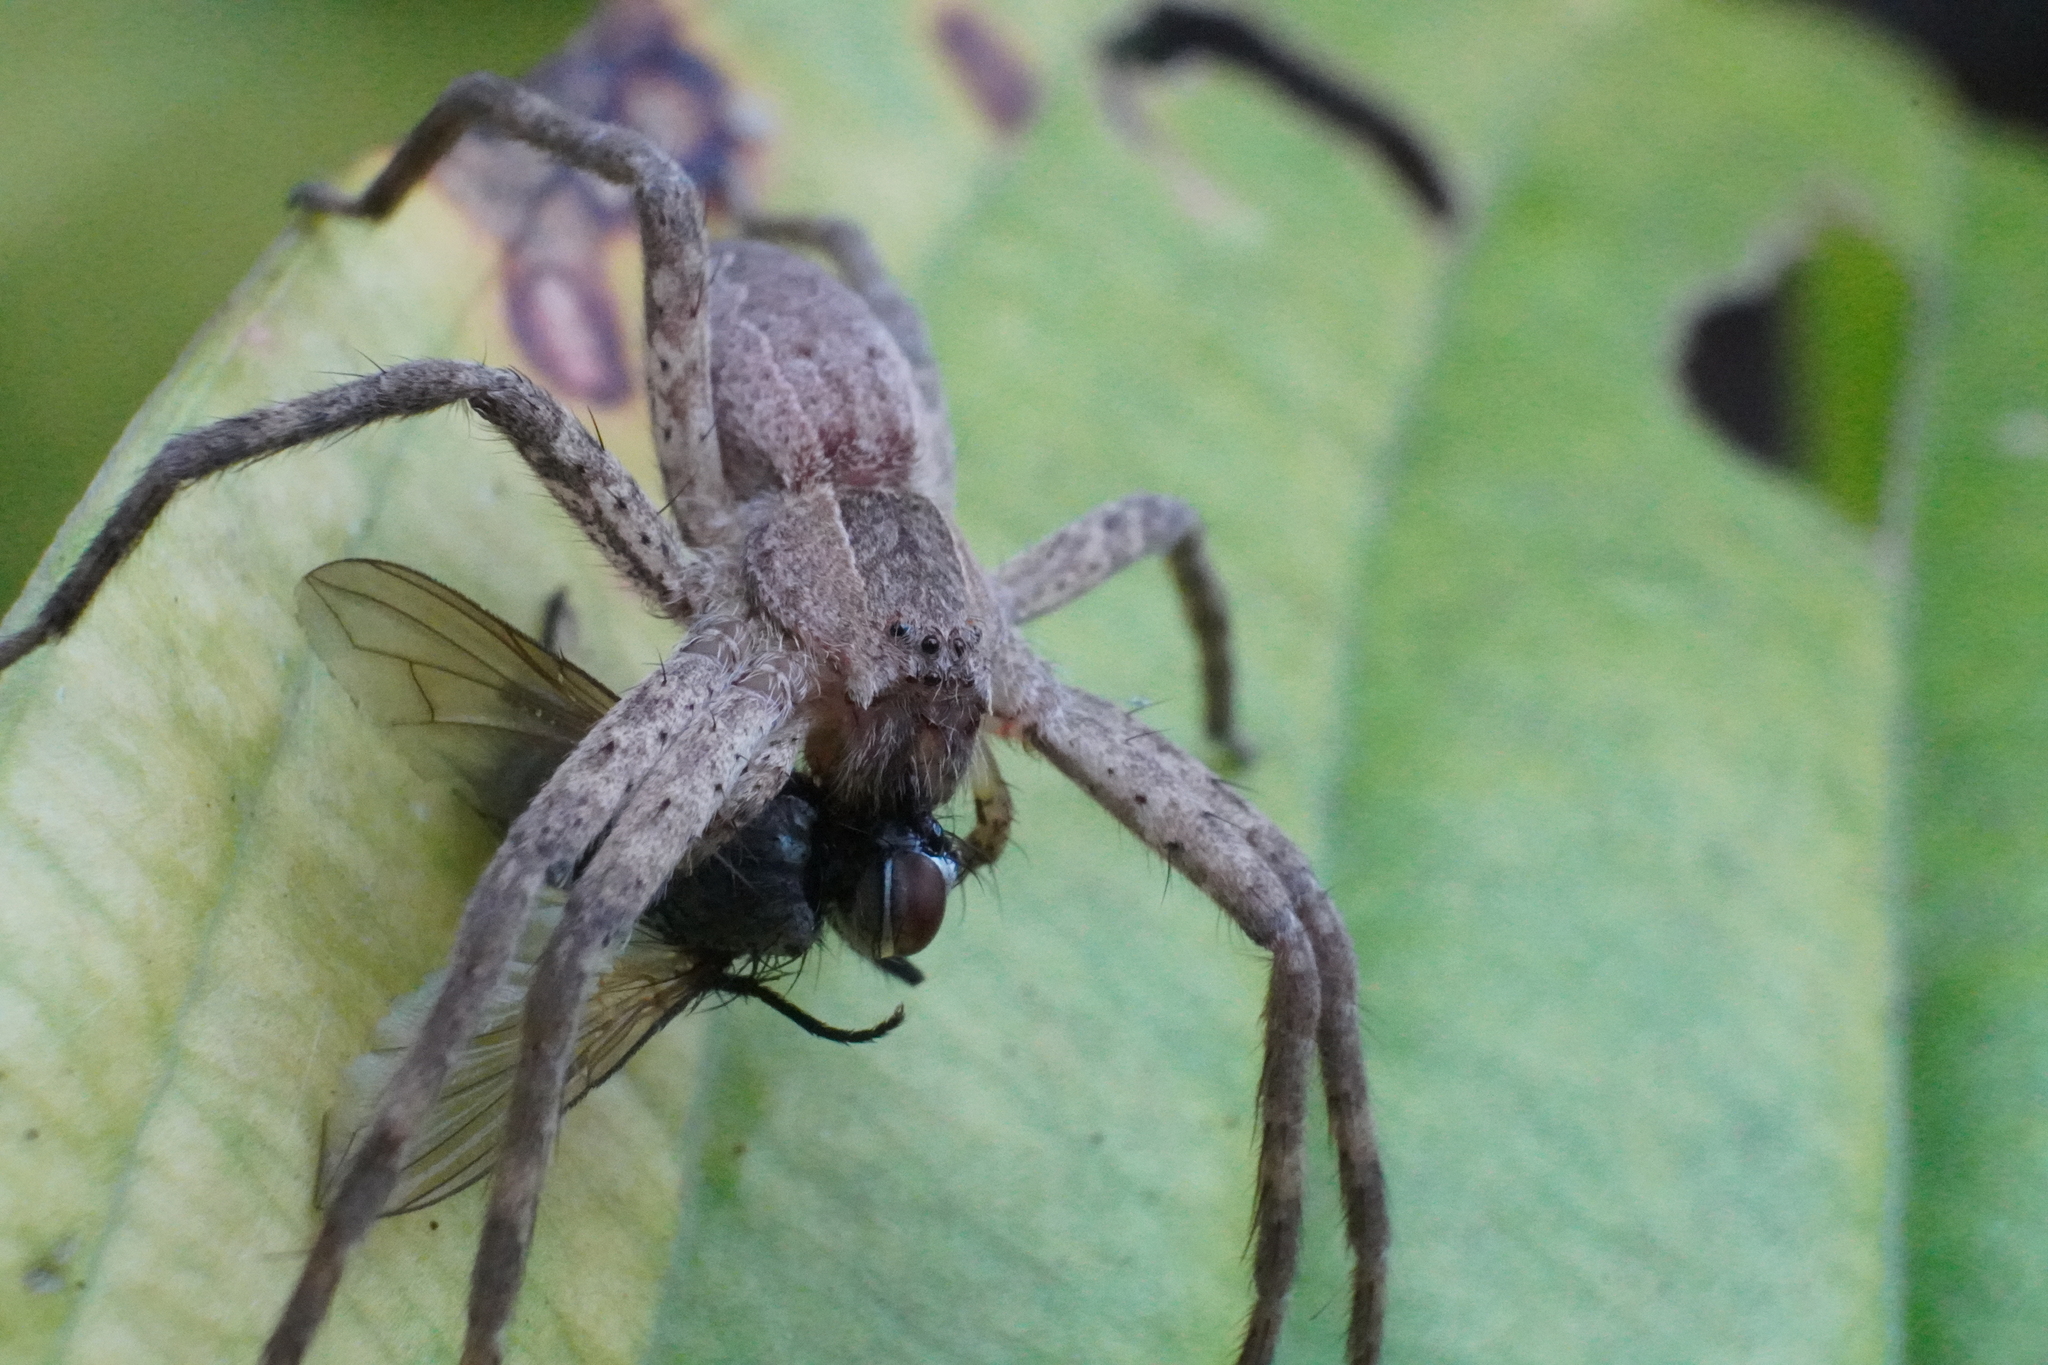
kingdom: Animalia
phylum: Arthropoda
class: Arachnida
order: Araneae
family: Pisauridae
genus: Pisaurina
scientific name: Pisaurina mira
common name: American nursery web spider
